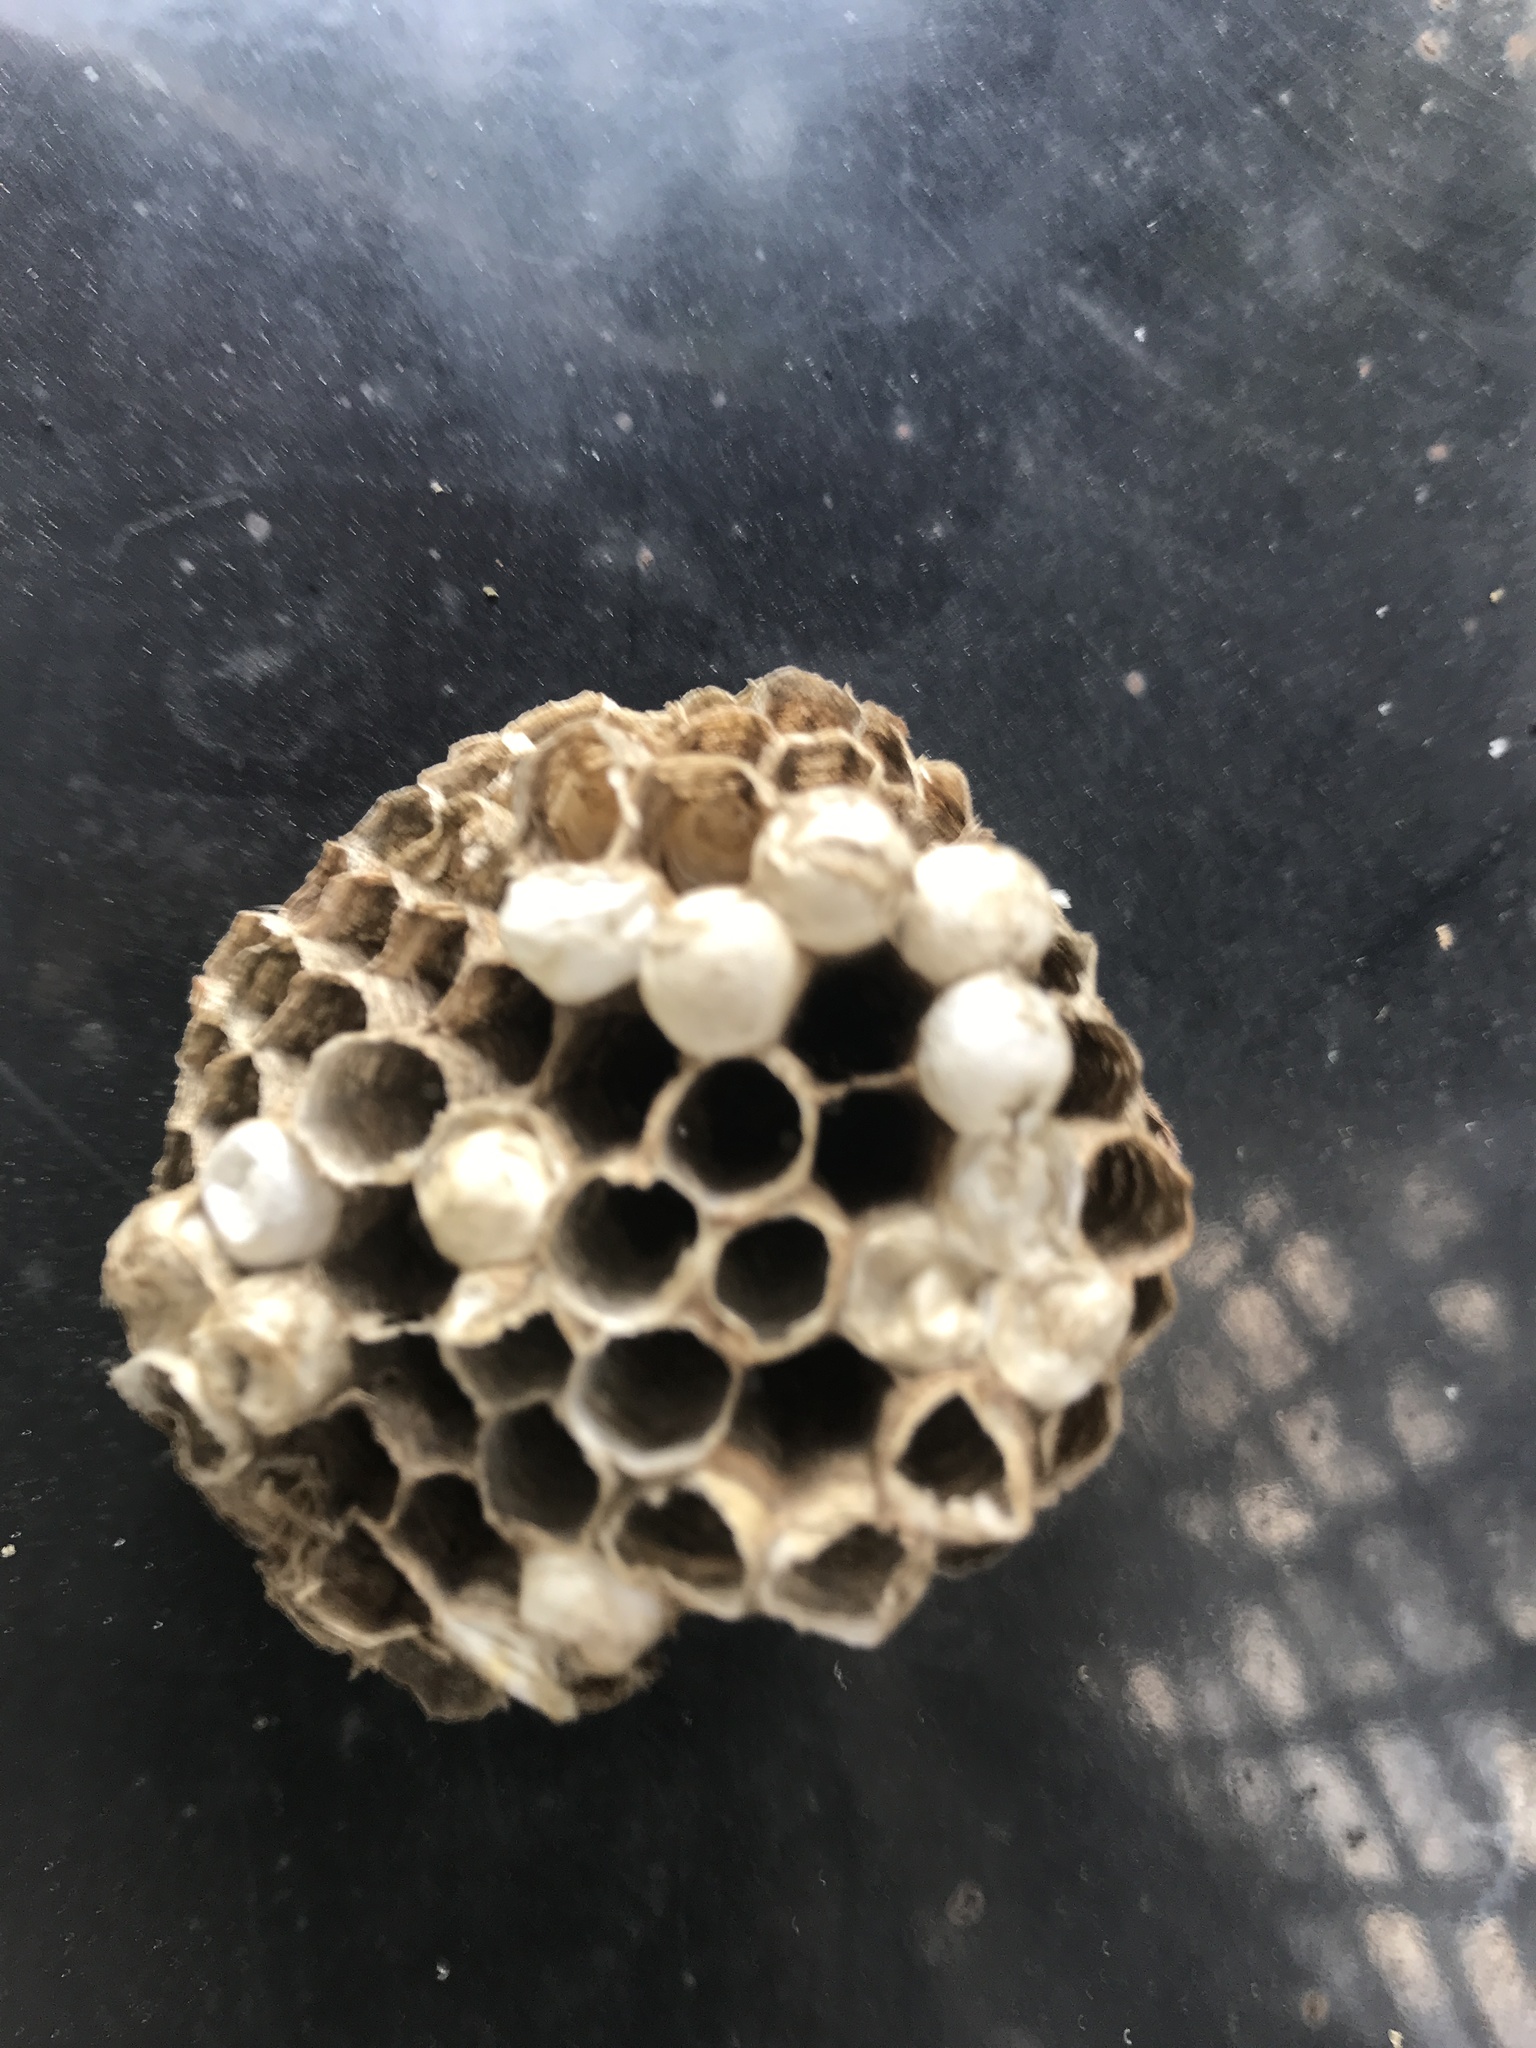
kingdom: Animalia
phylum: Arthropoda
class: Insecta
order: Hymenoptera
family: Vespidae
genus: Fuscopolistes
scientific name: Fuscopolistes
